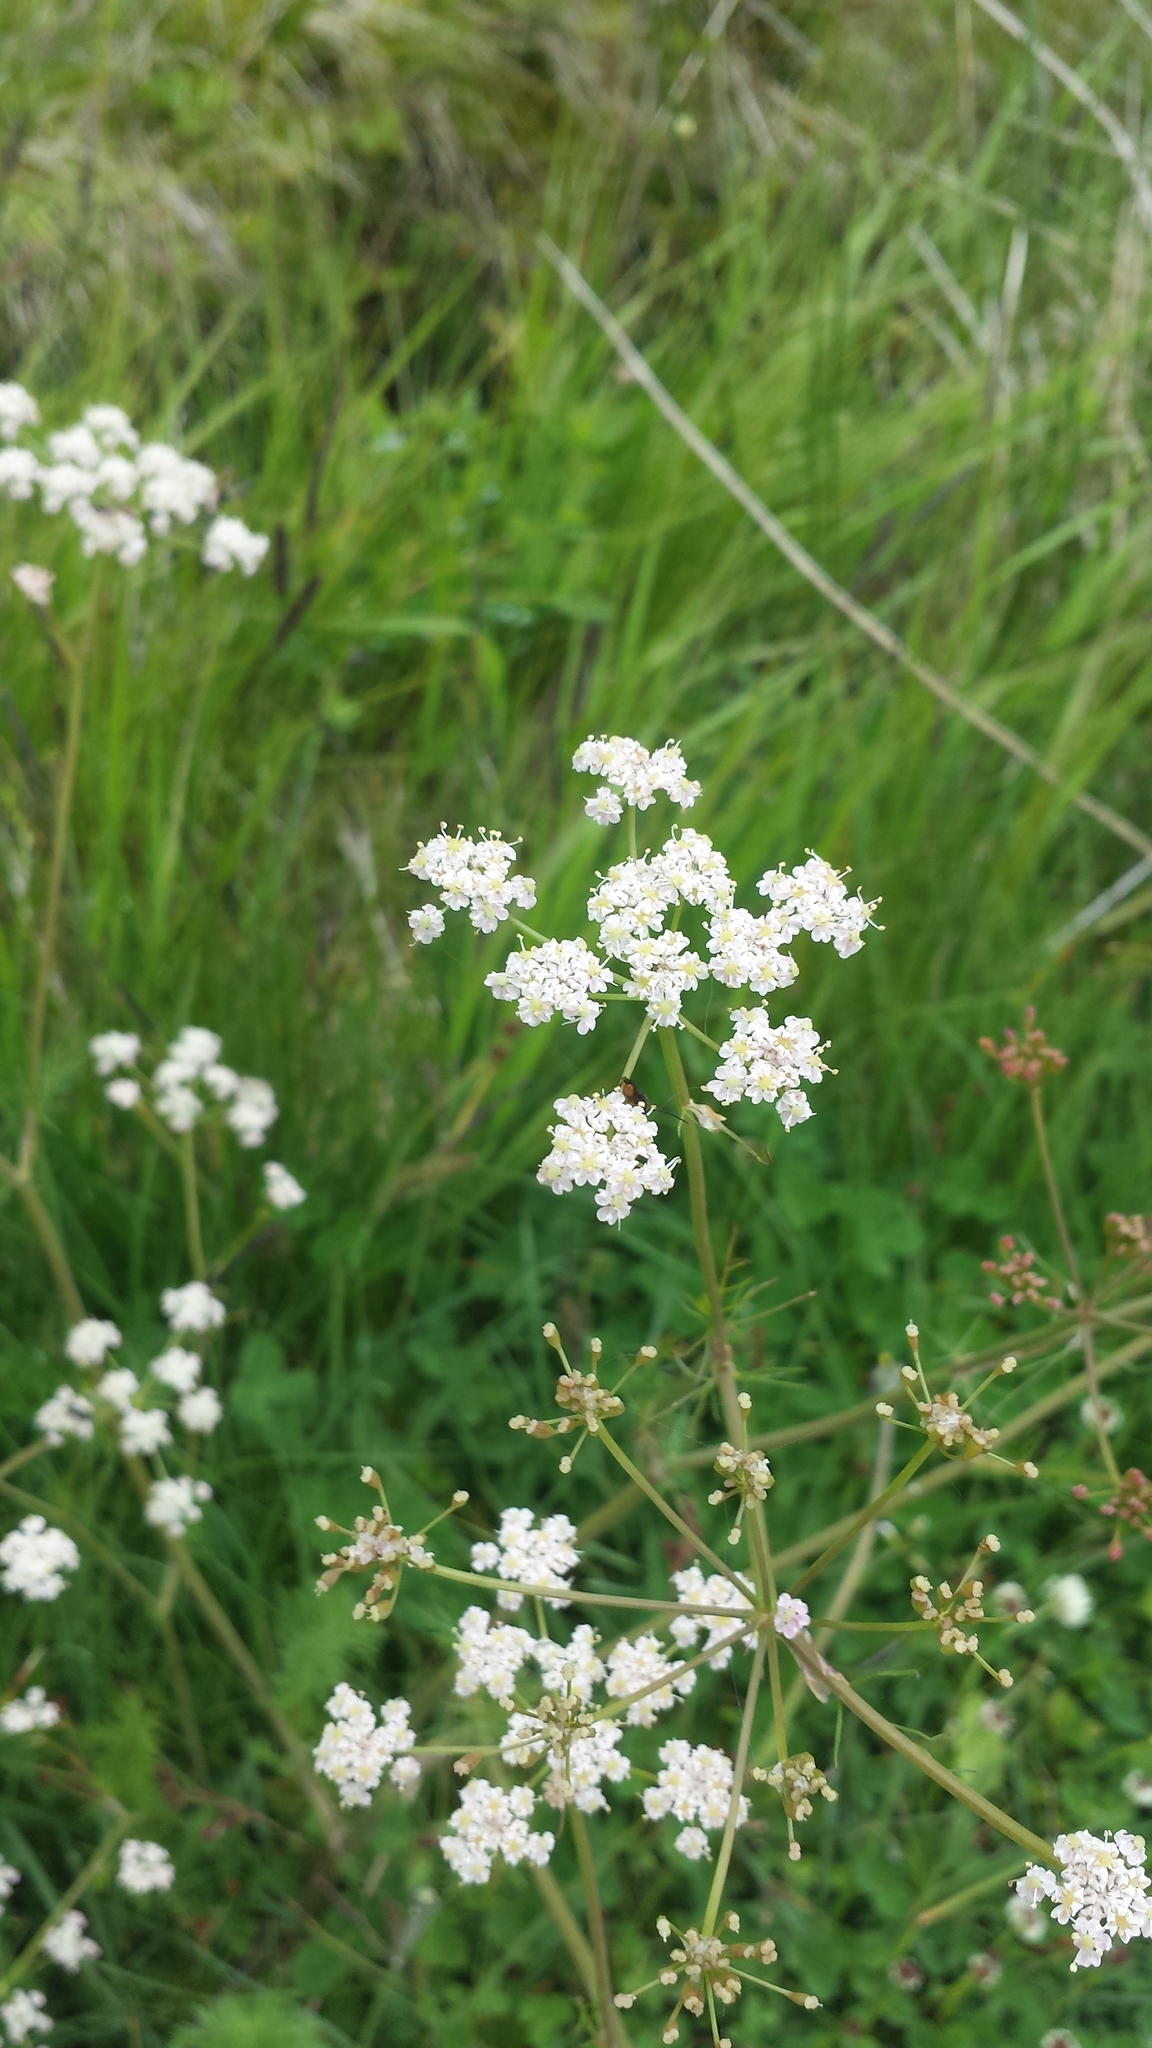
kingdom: Plantae
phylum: Tracheophyta
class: Magnoliopsida
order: Apiales
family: Apiaceae
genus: Carum
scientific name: Carum carvi
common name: Caraway
